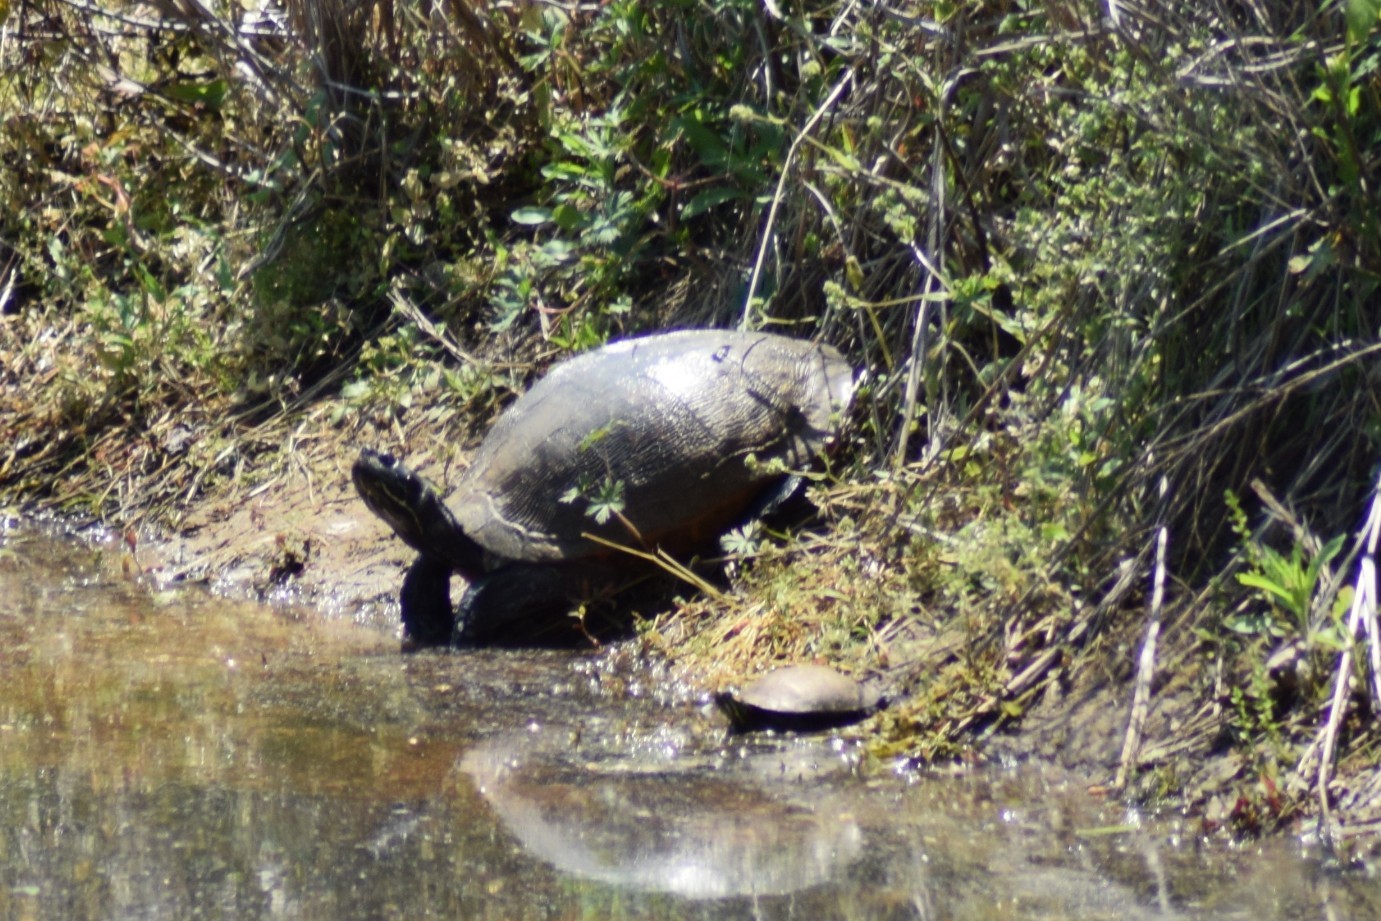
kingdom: Animalia
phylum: Chordata
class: Testudines
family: Emydidae
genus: Pseudemys
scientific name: Pseudemys rubriventris
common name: American red-bellied turtle
